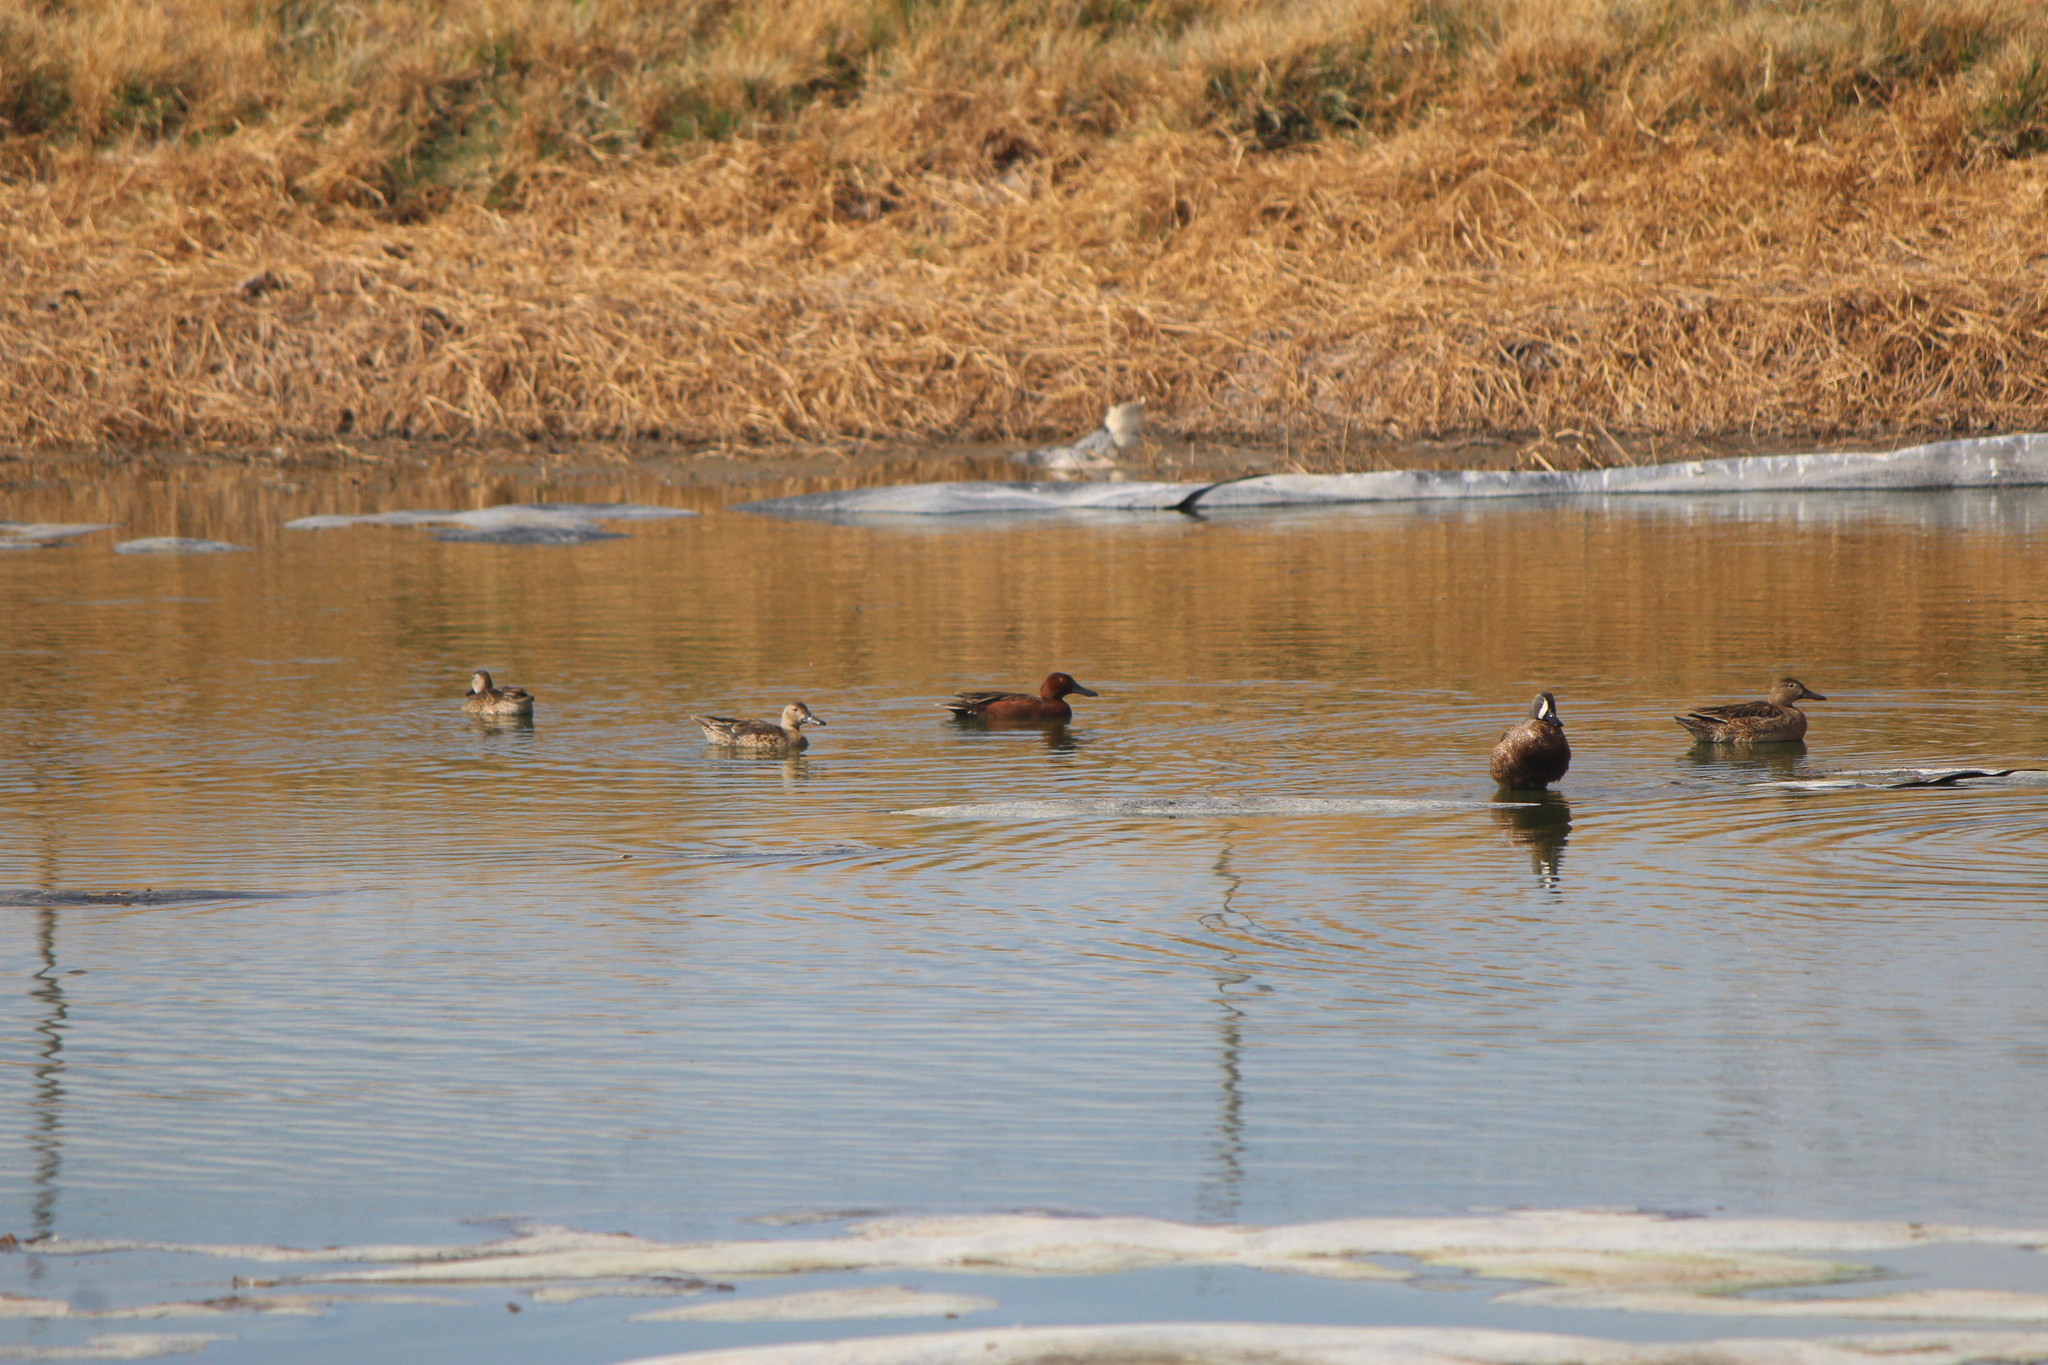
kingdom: Animalia
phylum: Chordata
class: Aves
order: Anseriformes
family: Anatidae
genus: Spatula
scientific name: Spatula cyanoptera
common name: Cinnamon teal
